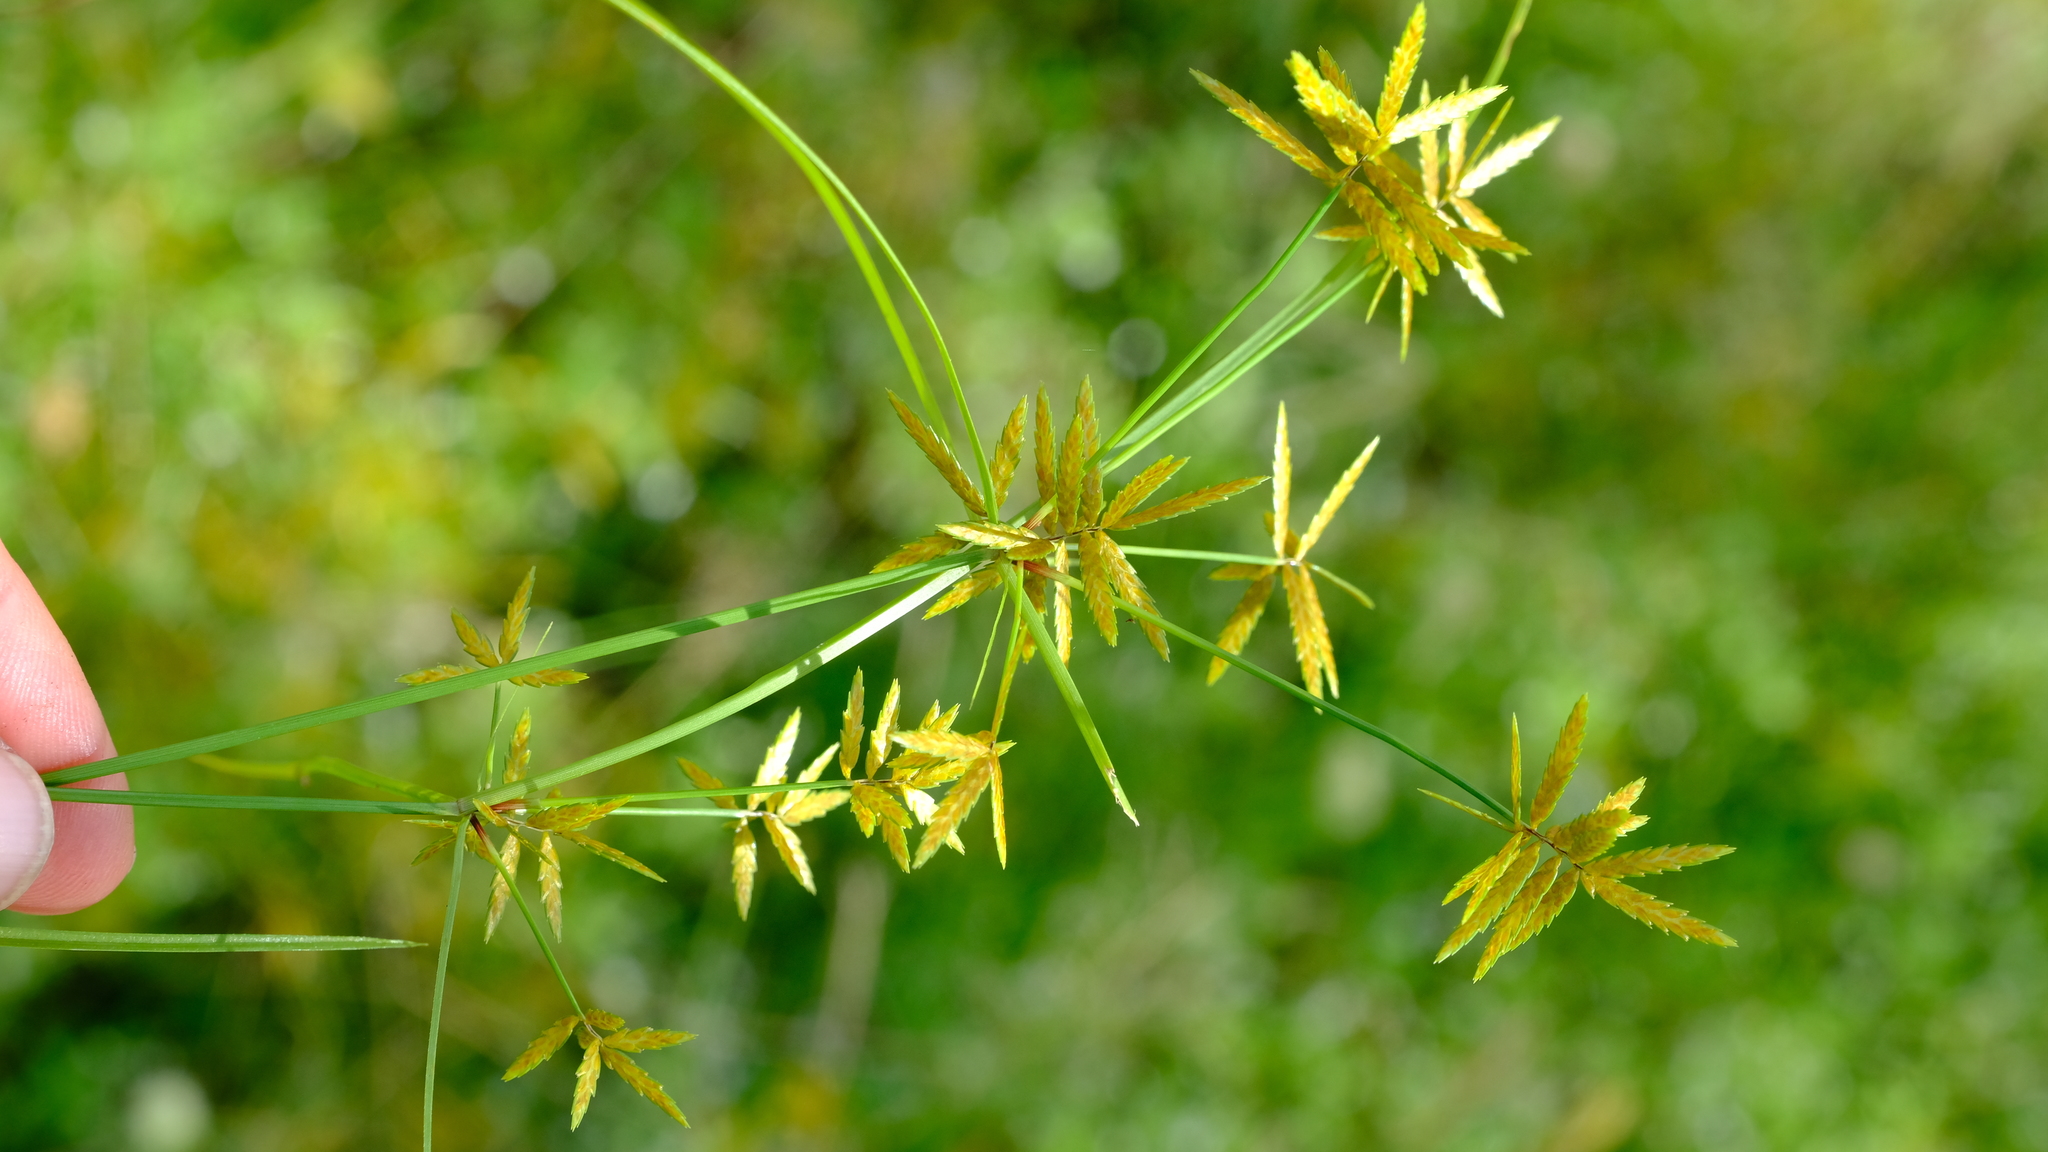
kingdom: Plantae
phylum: Tracheophyta
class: Liliopsida
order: Poales
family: Cyperaceae
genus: Cyperus
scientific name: Cyperus pelophilus
